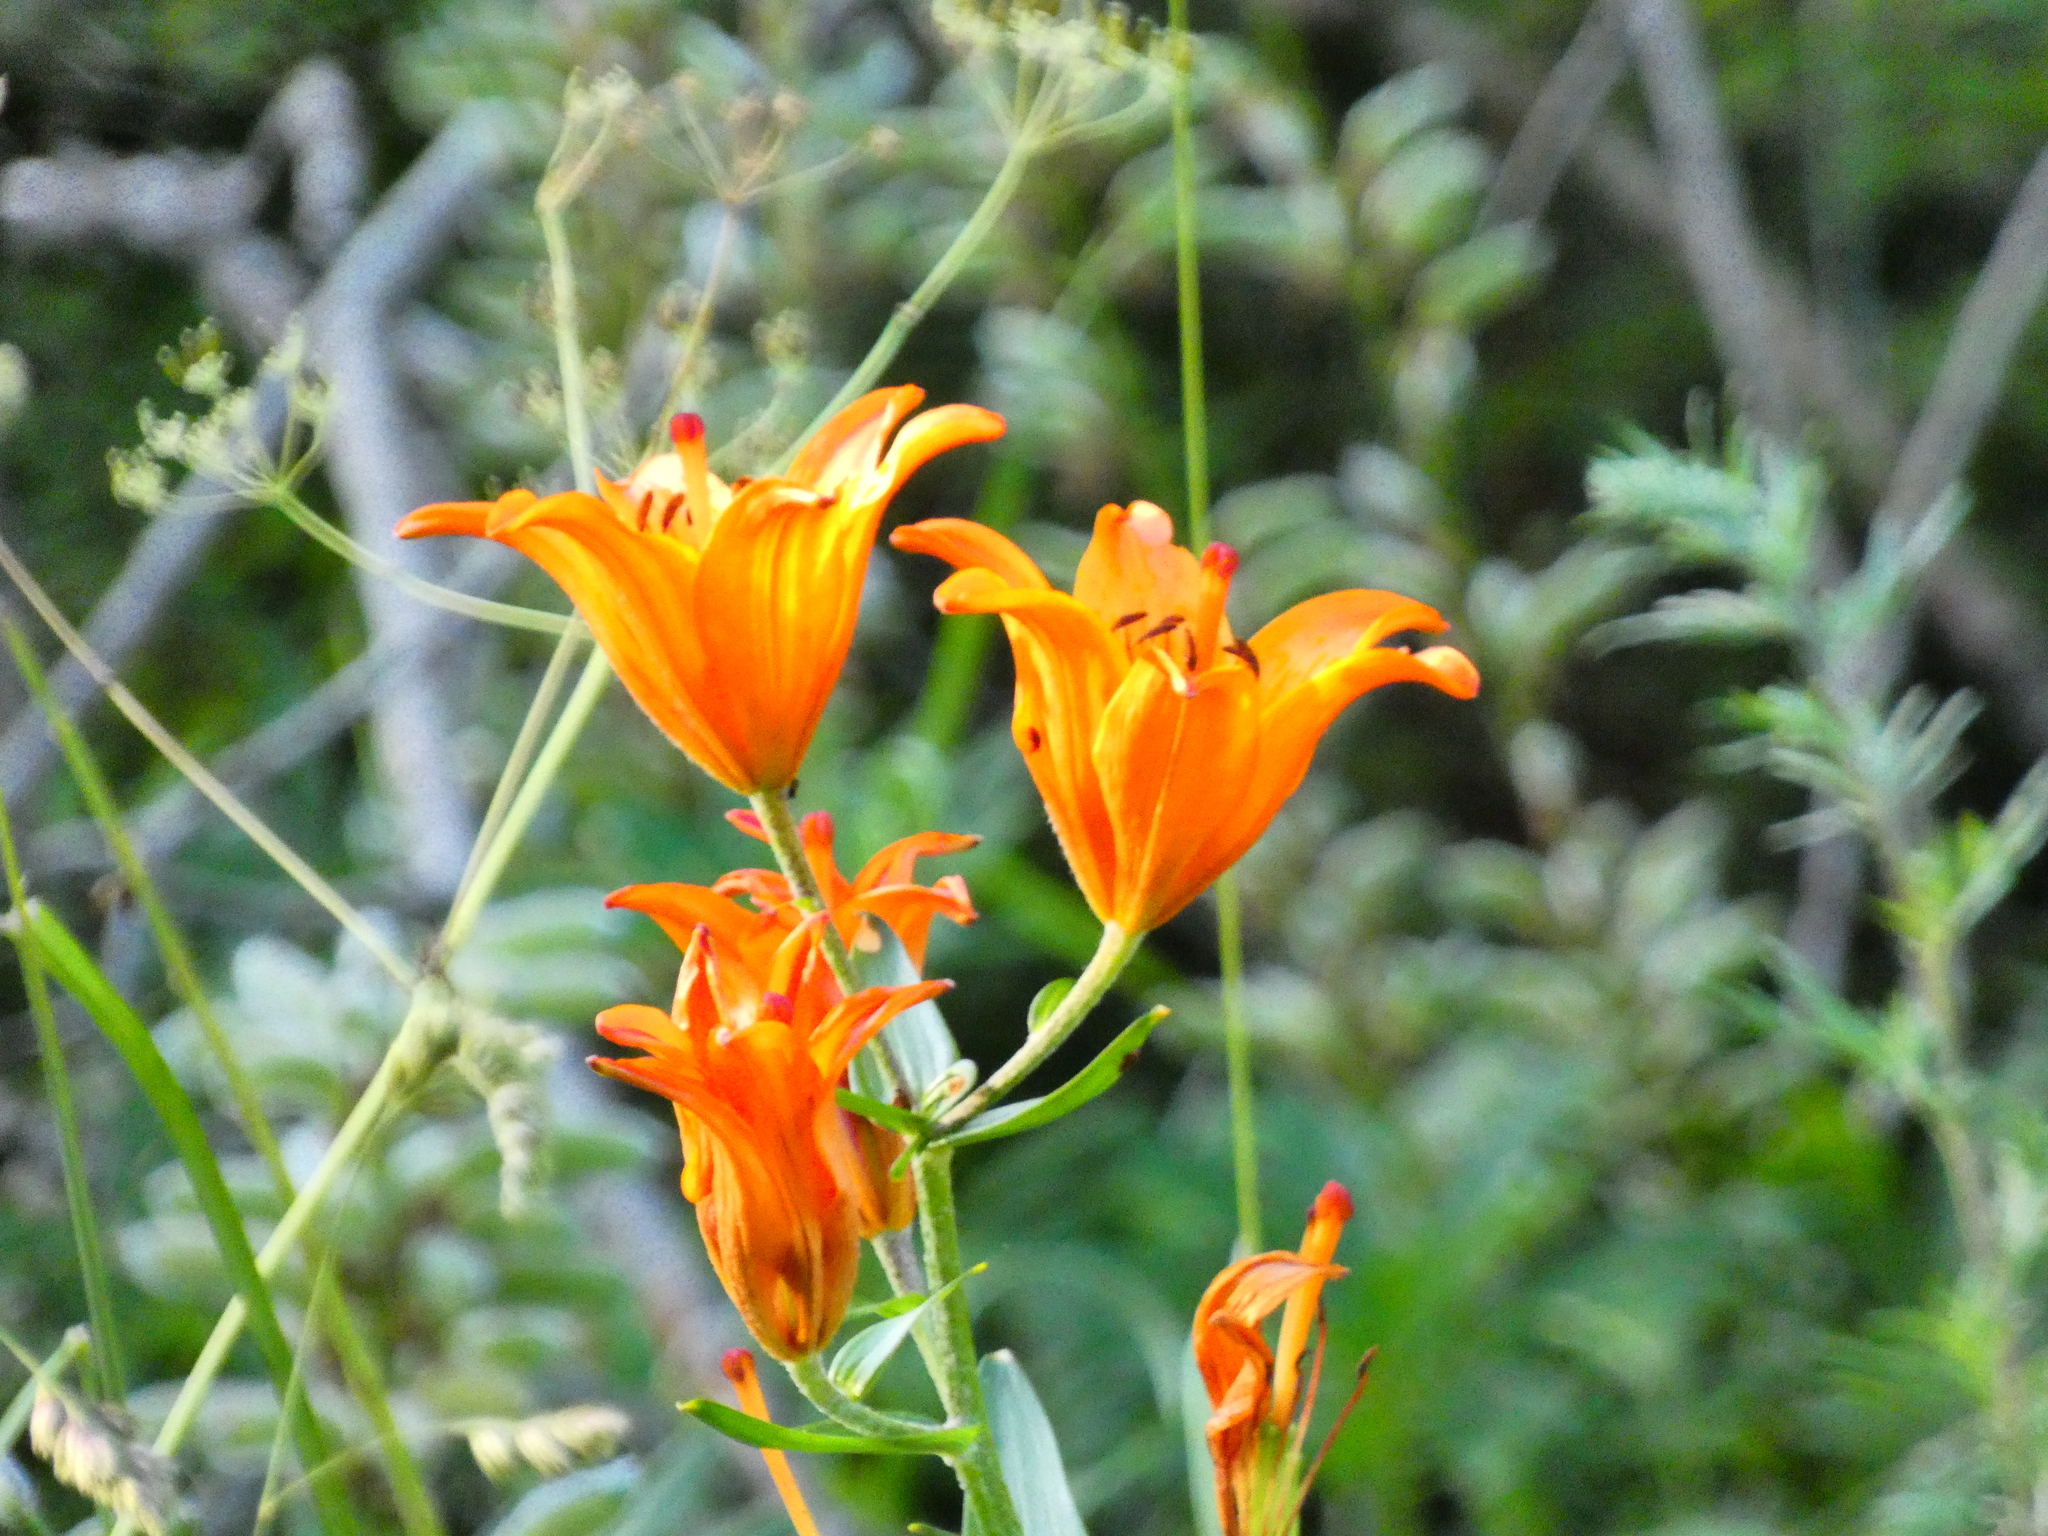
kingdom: Plantae
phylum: Tracheophyta
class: Liliopsida
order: Liliales
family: Liliaceae
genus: Lilium
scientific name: Lilium bulbiferum
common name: Orange lily
